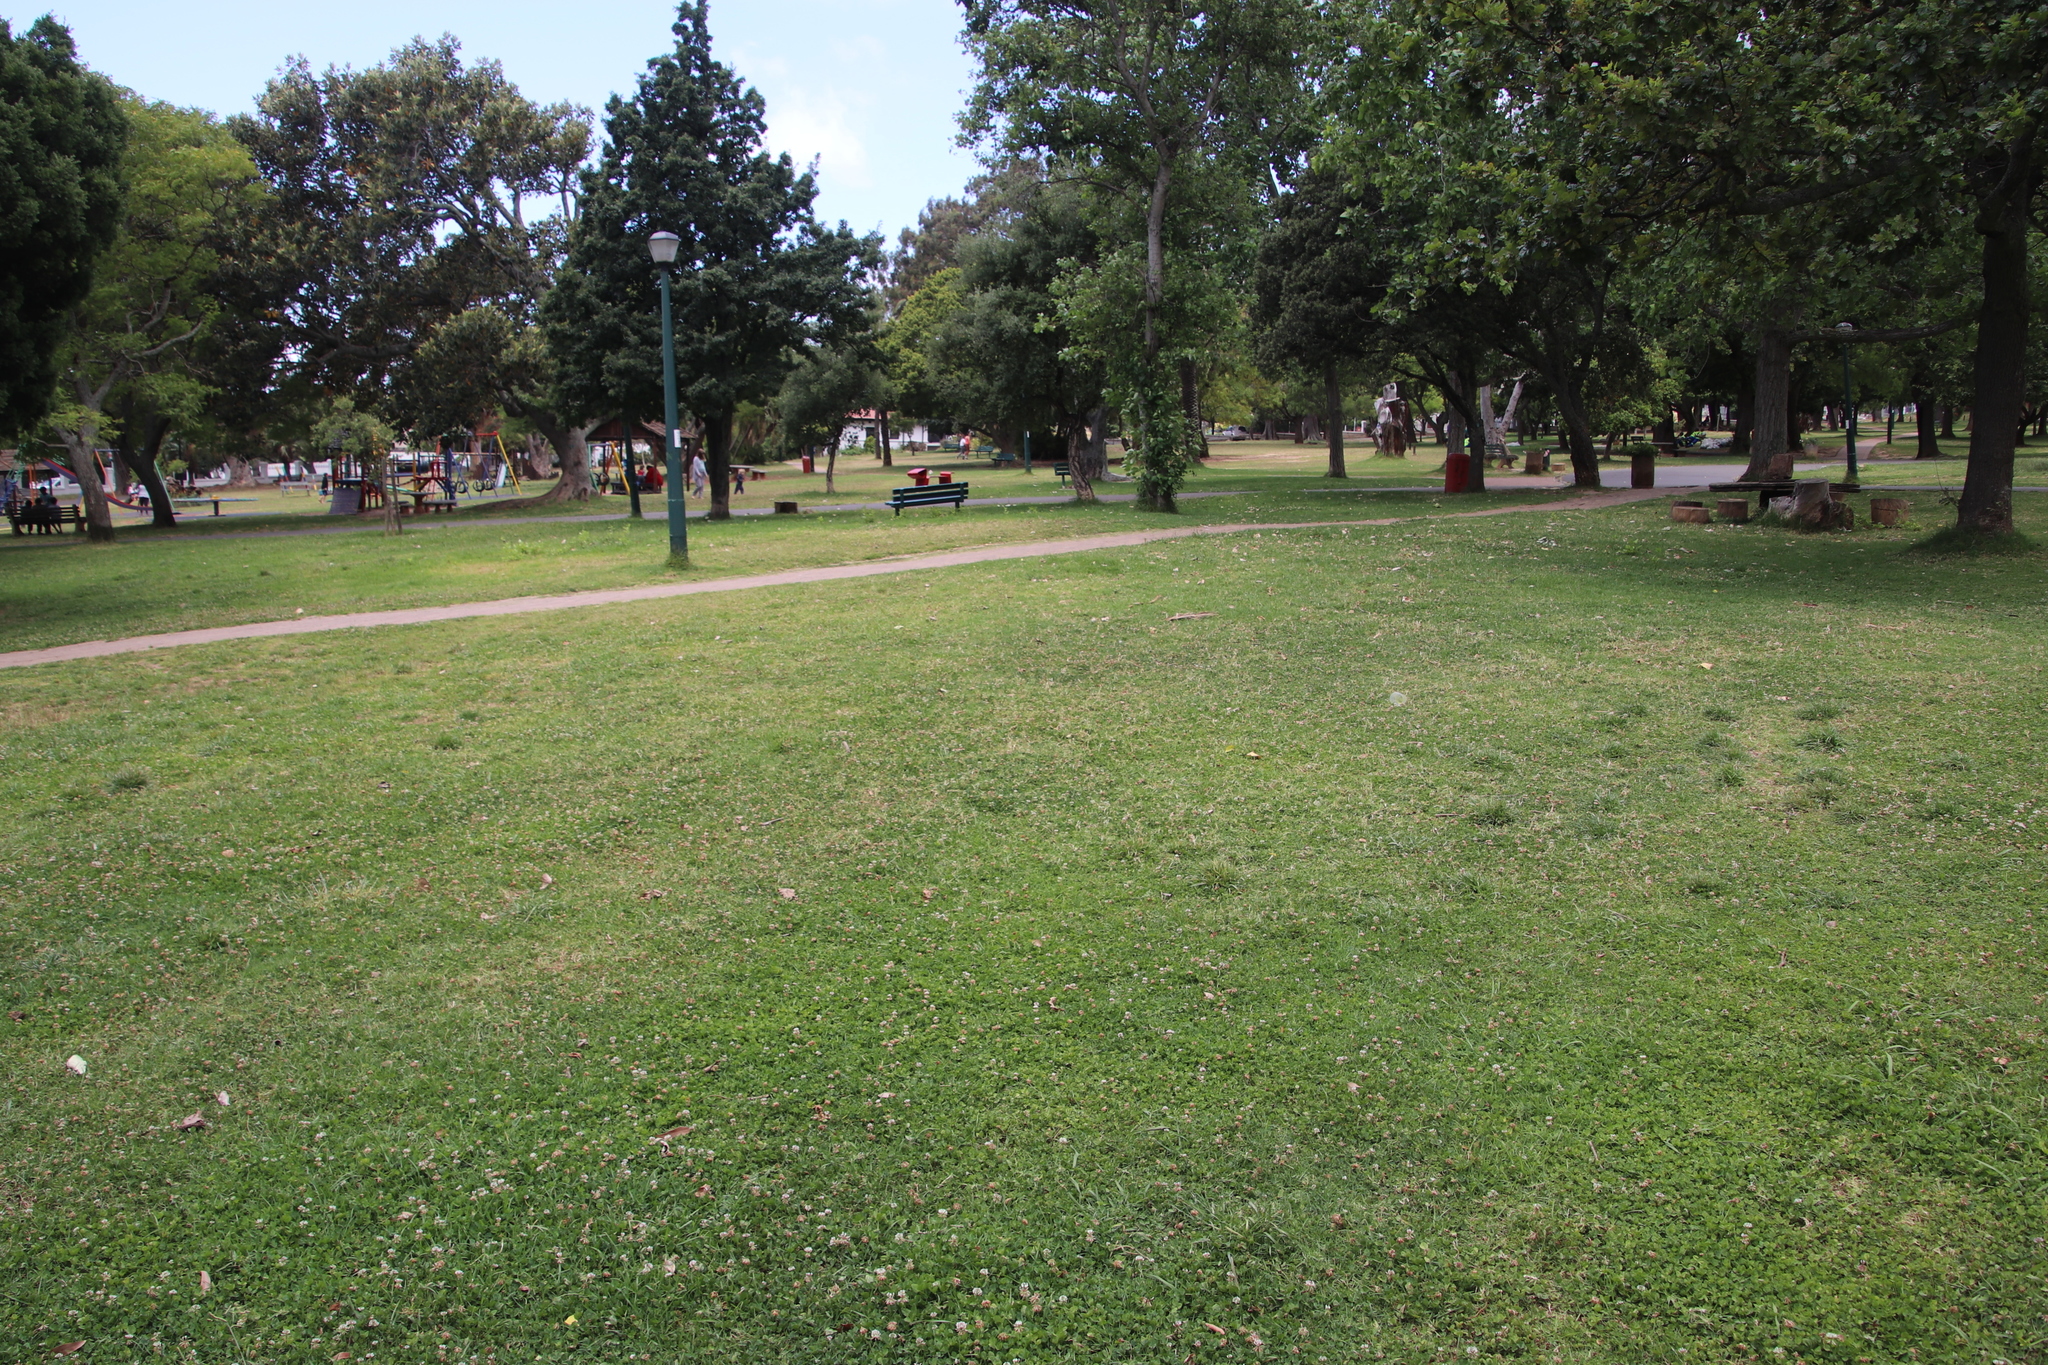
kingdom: Plantae
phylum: Tracheophyta
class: Magnoliopsida
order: Fabales
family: Fabaceae
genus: Trifolium
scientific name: Trifolium repens
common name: White clover
